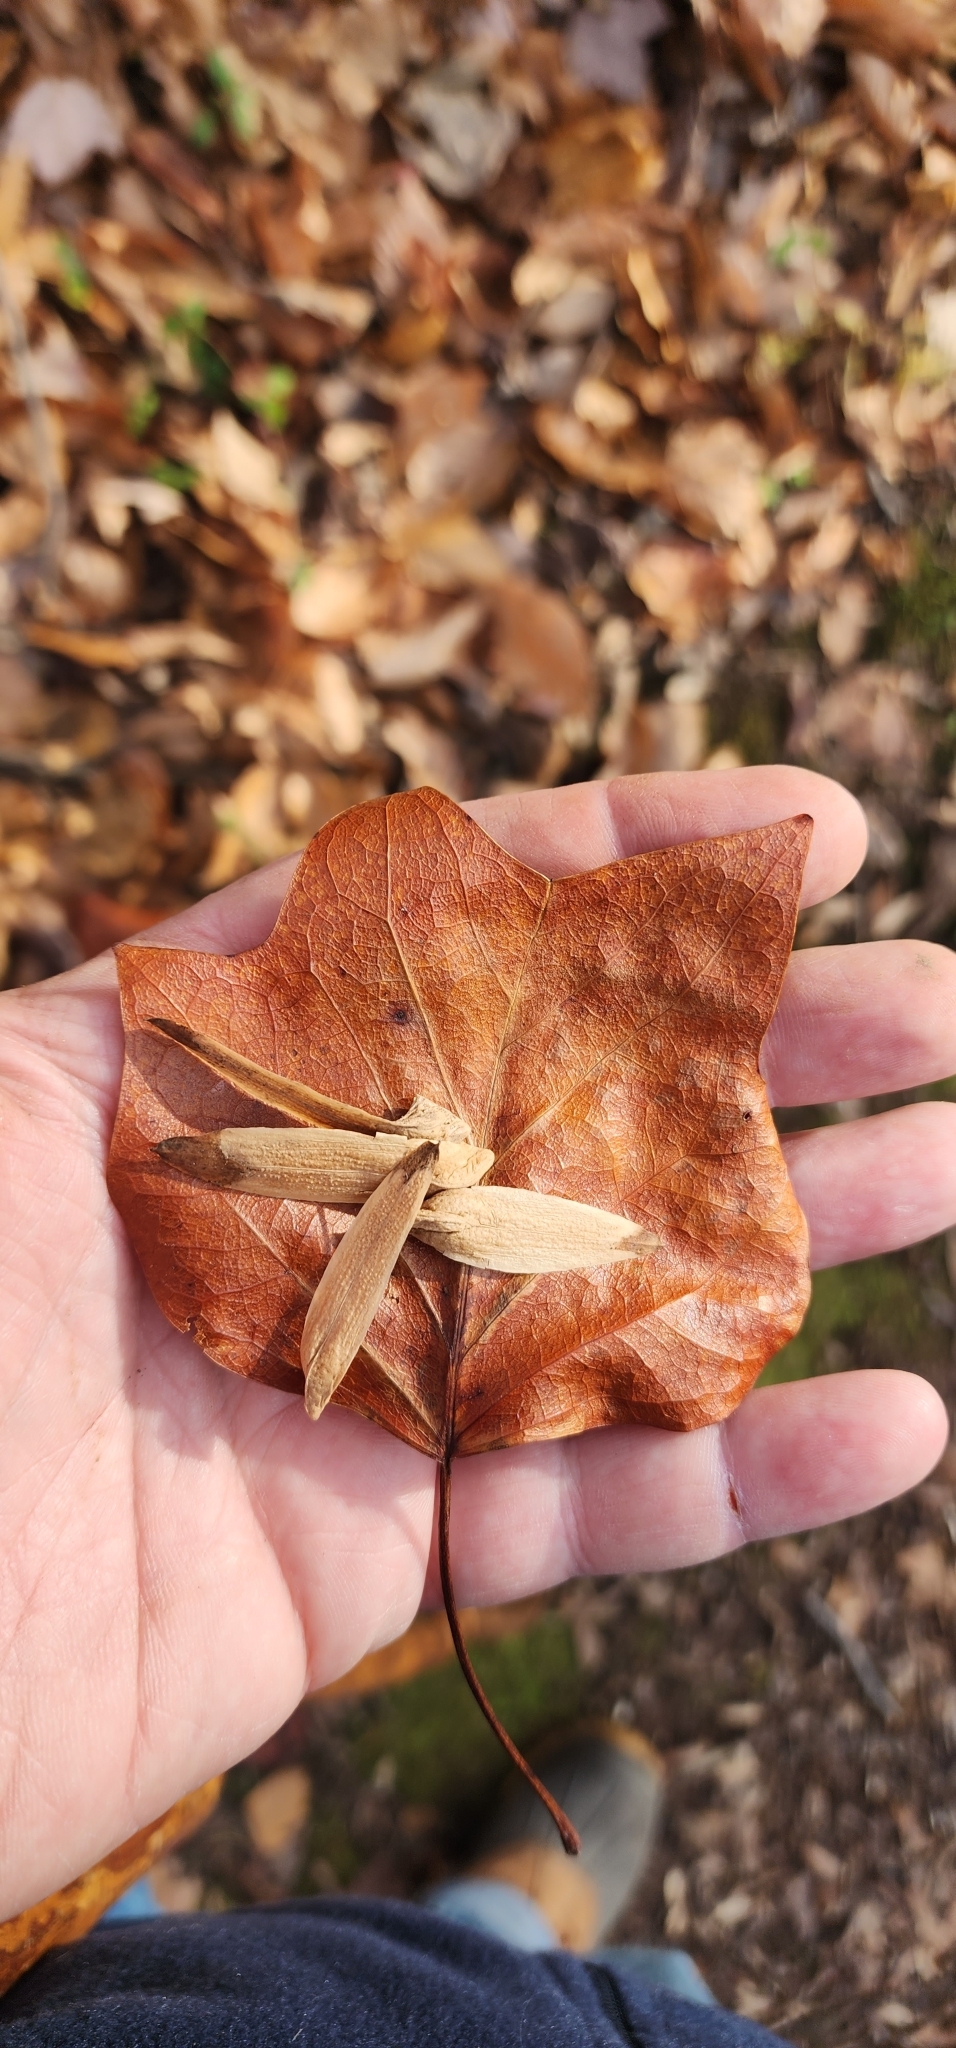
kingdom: Plantae
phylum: Tracheophyta
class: Magnoliopsida
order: Magnoliales
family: Magnoliaceae
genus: Liriodendron
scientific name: Liriodendron tulipifera
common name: Tulip tree
